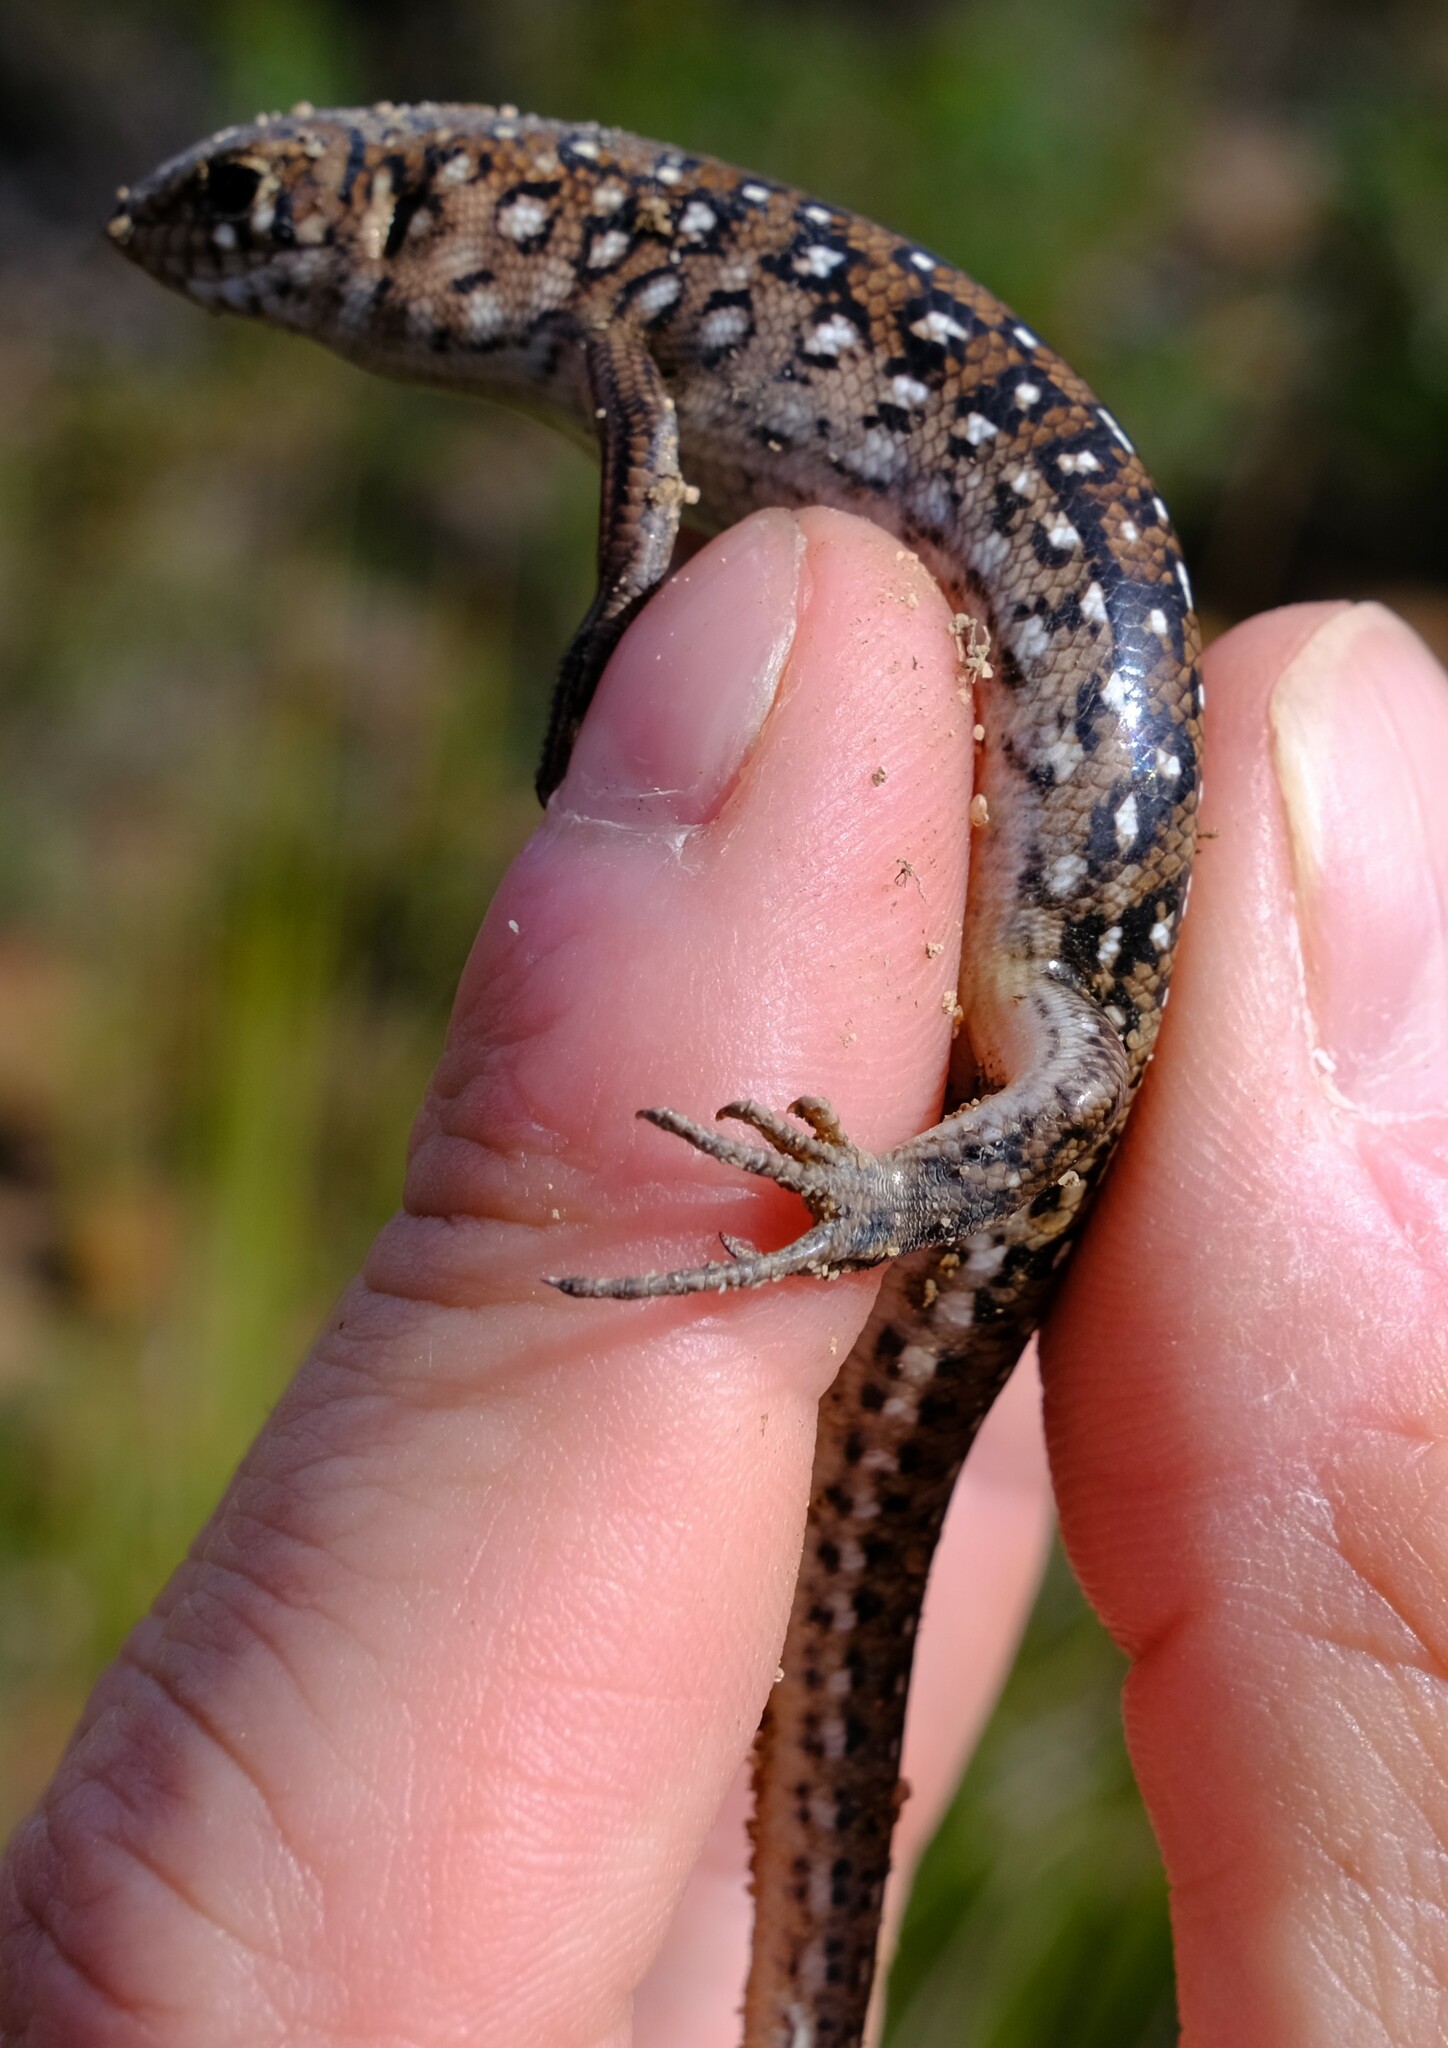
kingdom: Animalia
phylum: Chordata
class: Squamata
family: Scincidae
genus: Ctenotus
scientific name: Ctenotus pantherinus
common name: Leopard ctenotus
